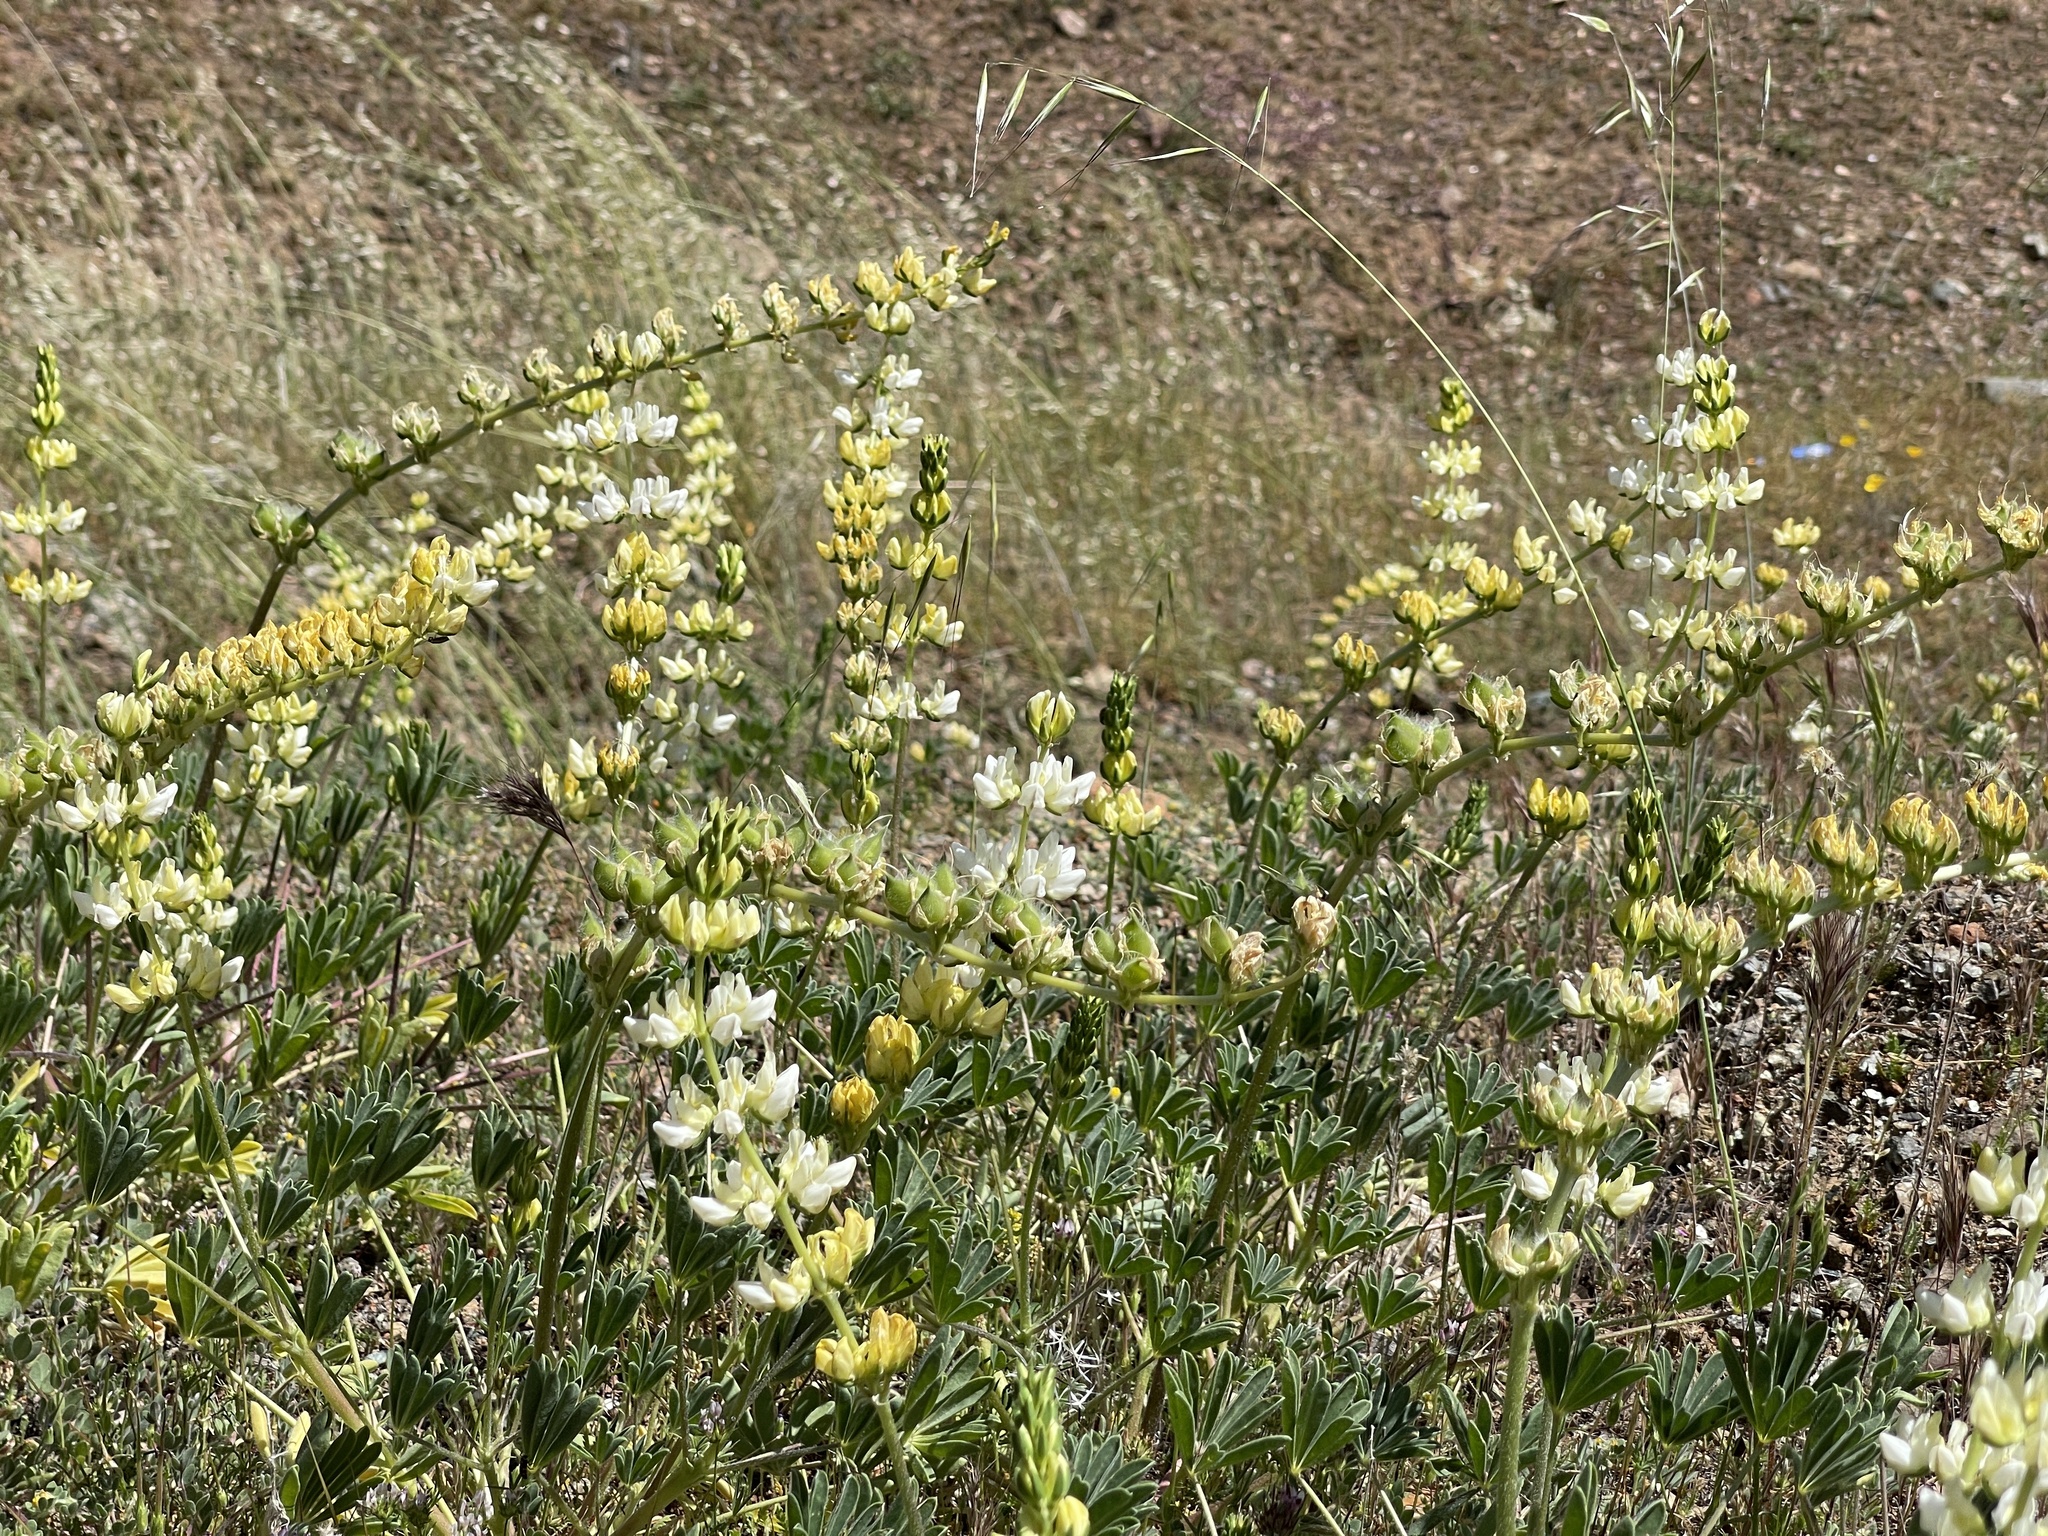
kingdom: Plantae
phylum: Tracheophyta
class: Magnoliopsida
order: Fabales
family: Fabaceae
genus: Lupinus
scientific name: Lupinus densiflorus
